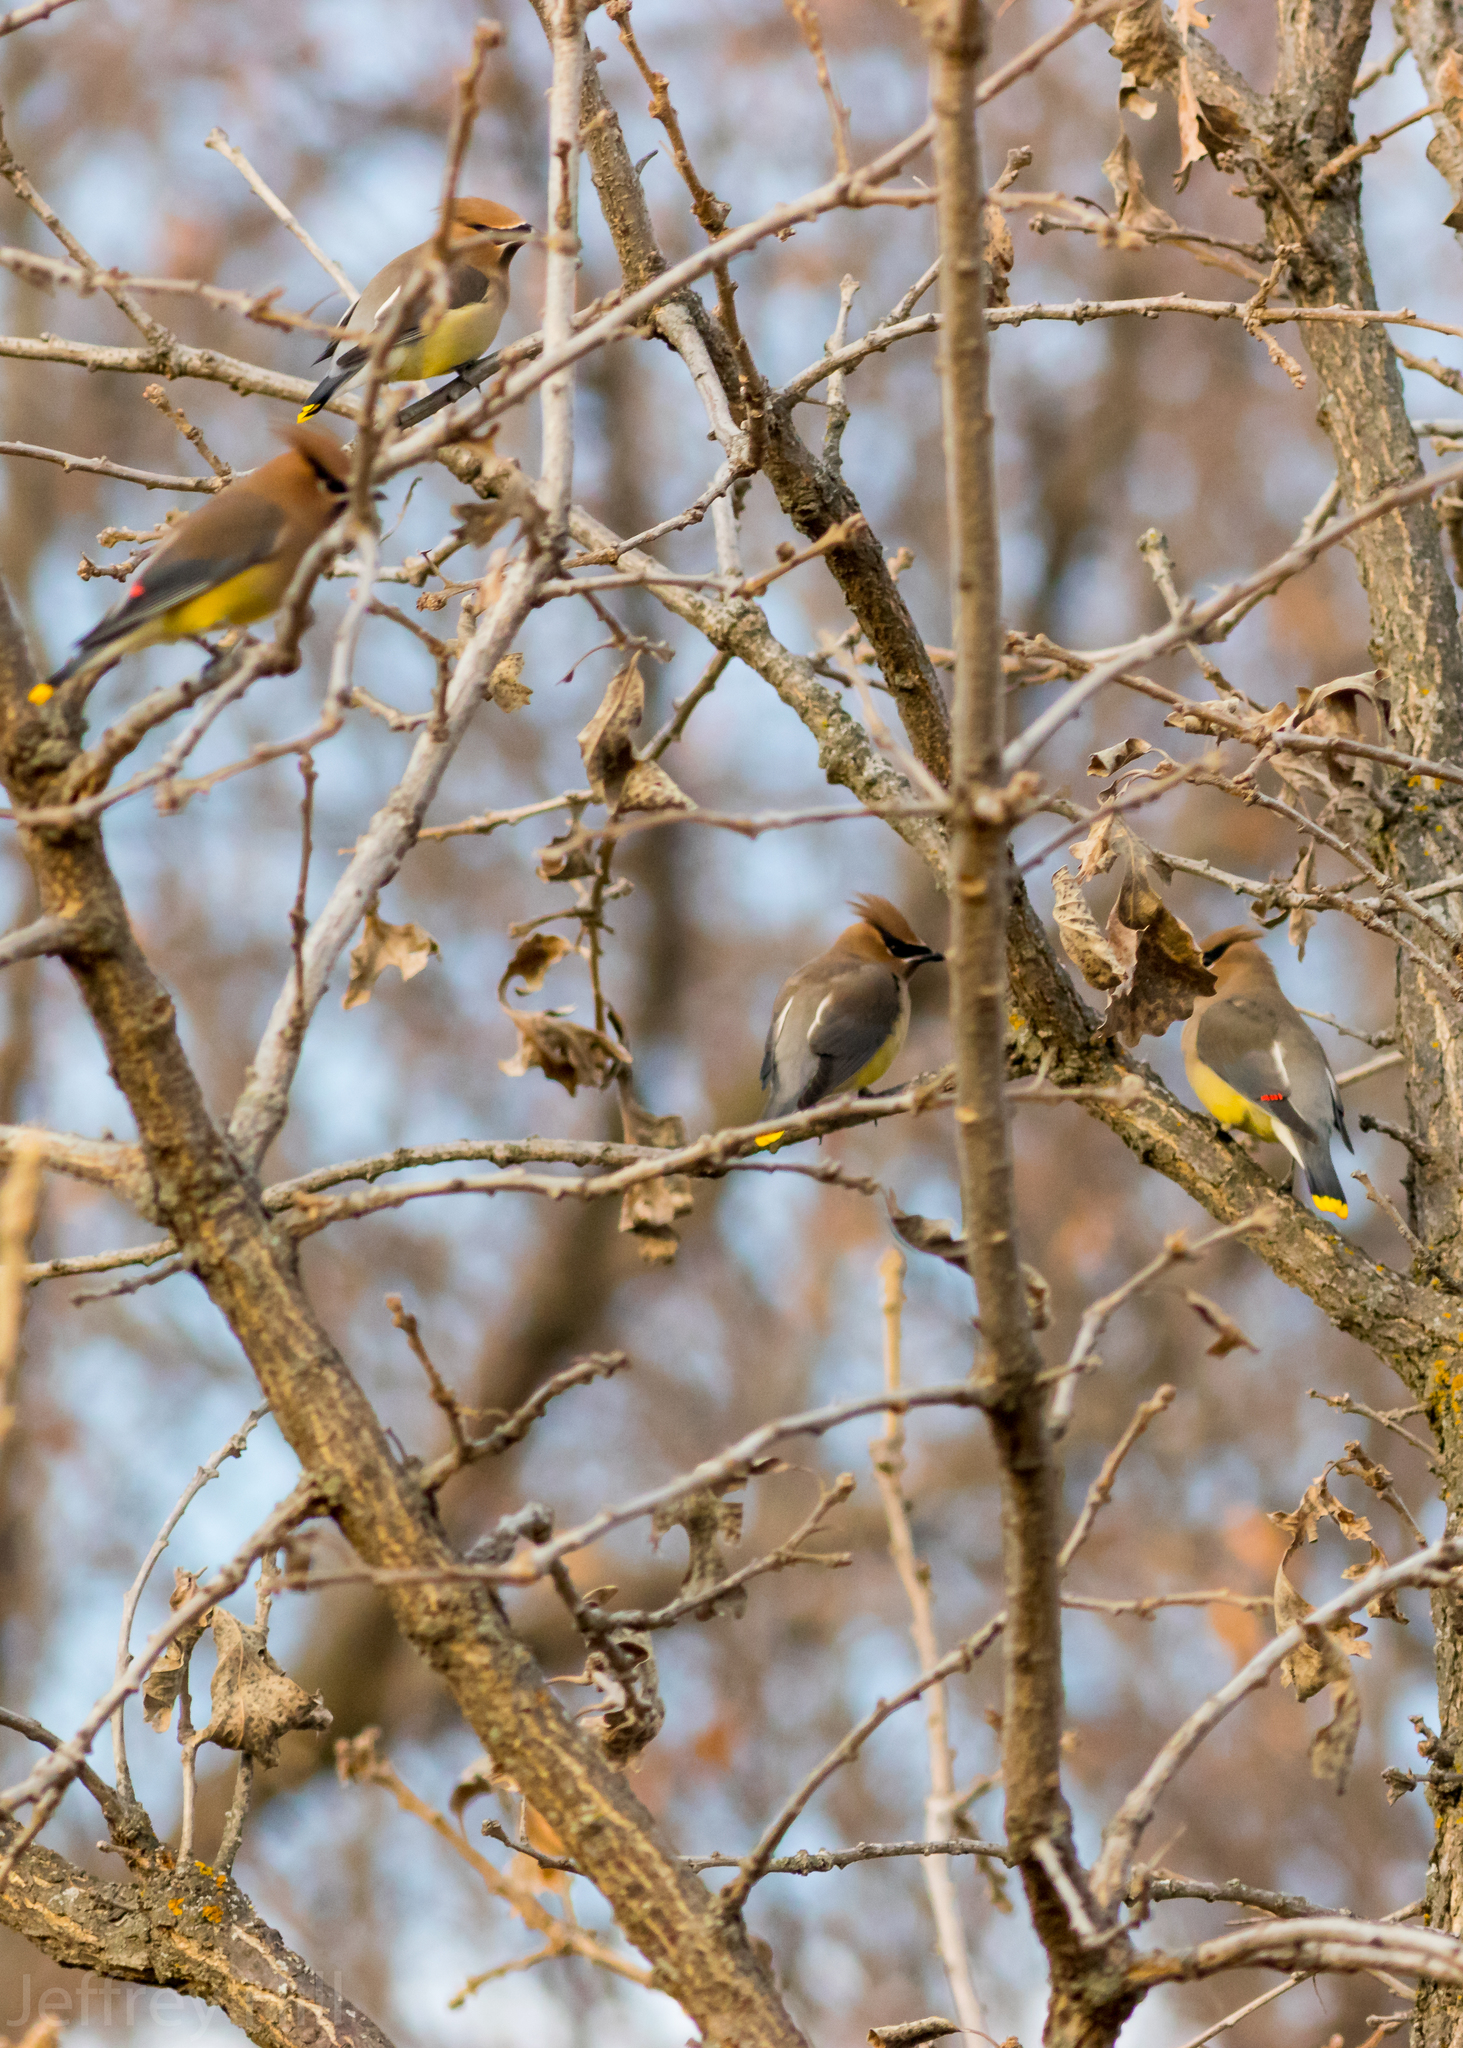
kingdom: Animalia
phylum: Chordata
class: Aves
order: Passeriformes
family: Bombycillidae
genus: Bombycilla
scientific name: Bombycilla cedrorum
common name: Cedar waxwing
